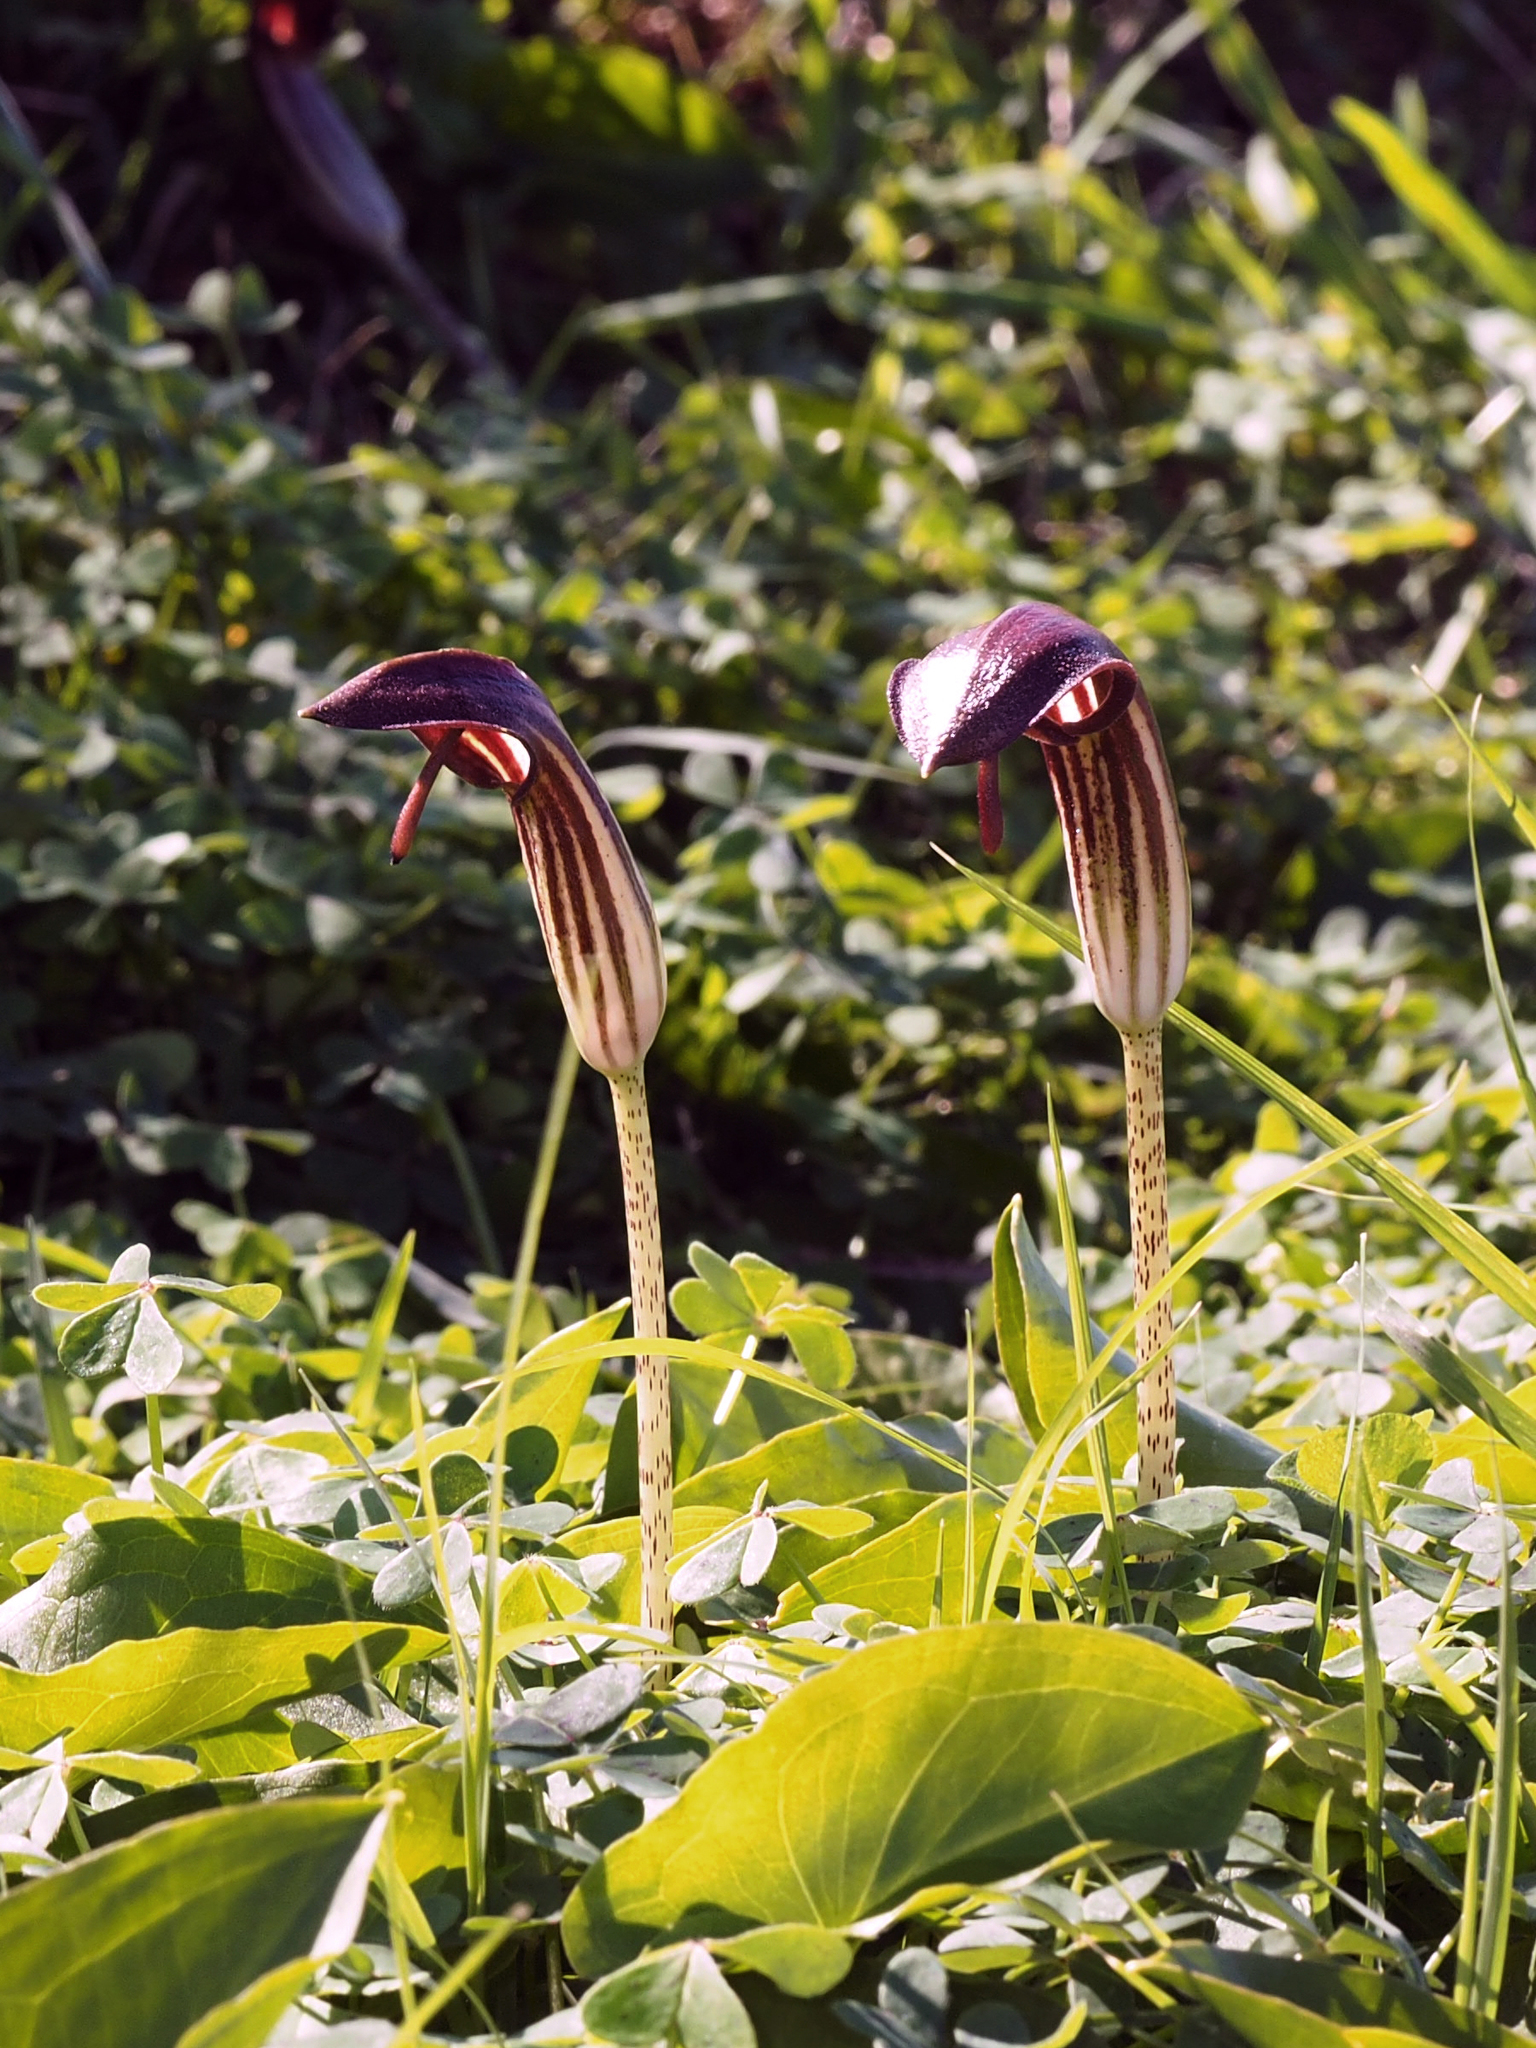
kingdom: Plantae
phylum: Tracheophyta
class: Liliopsida
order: Alismatales
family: Araceae
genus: Arisarum
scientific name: Arisarum vulgare
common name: Common arisarum
